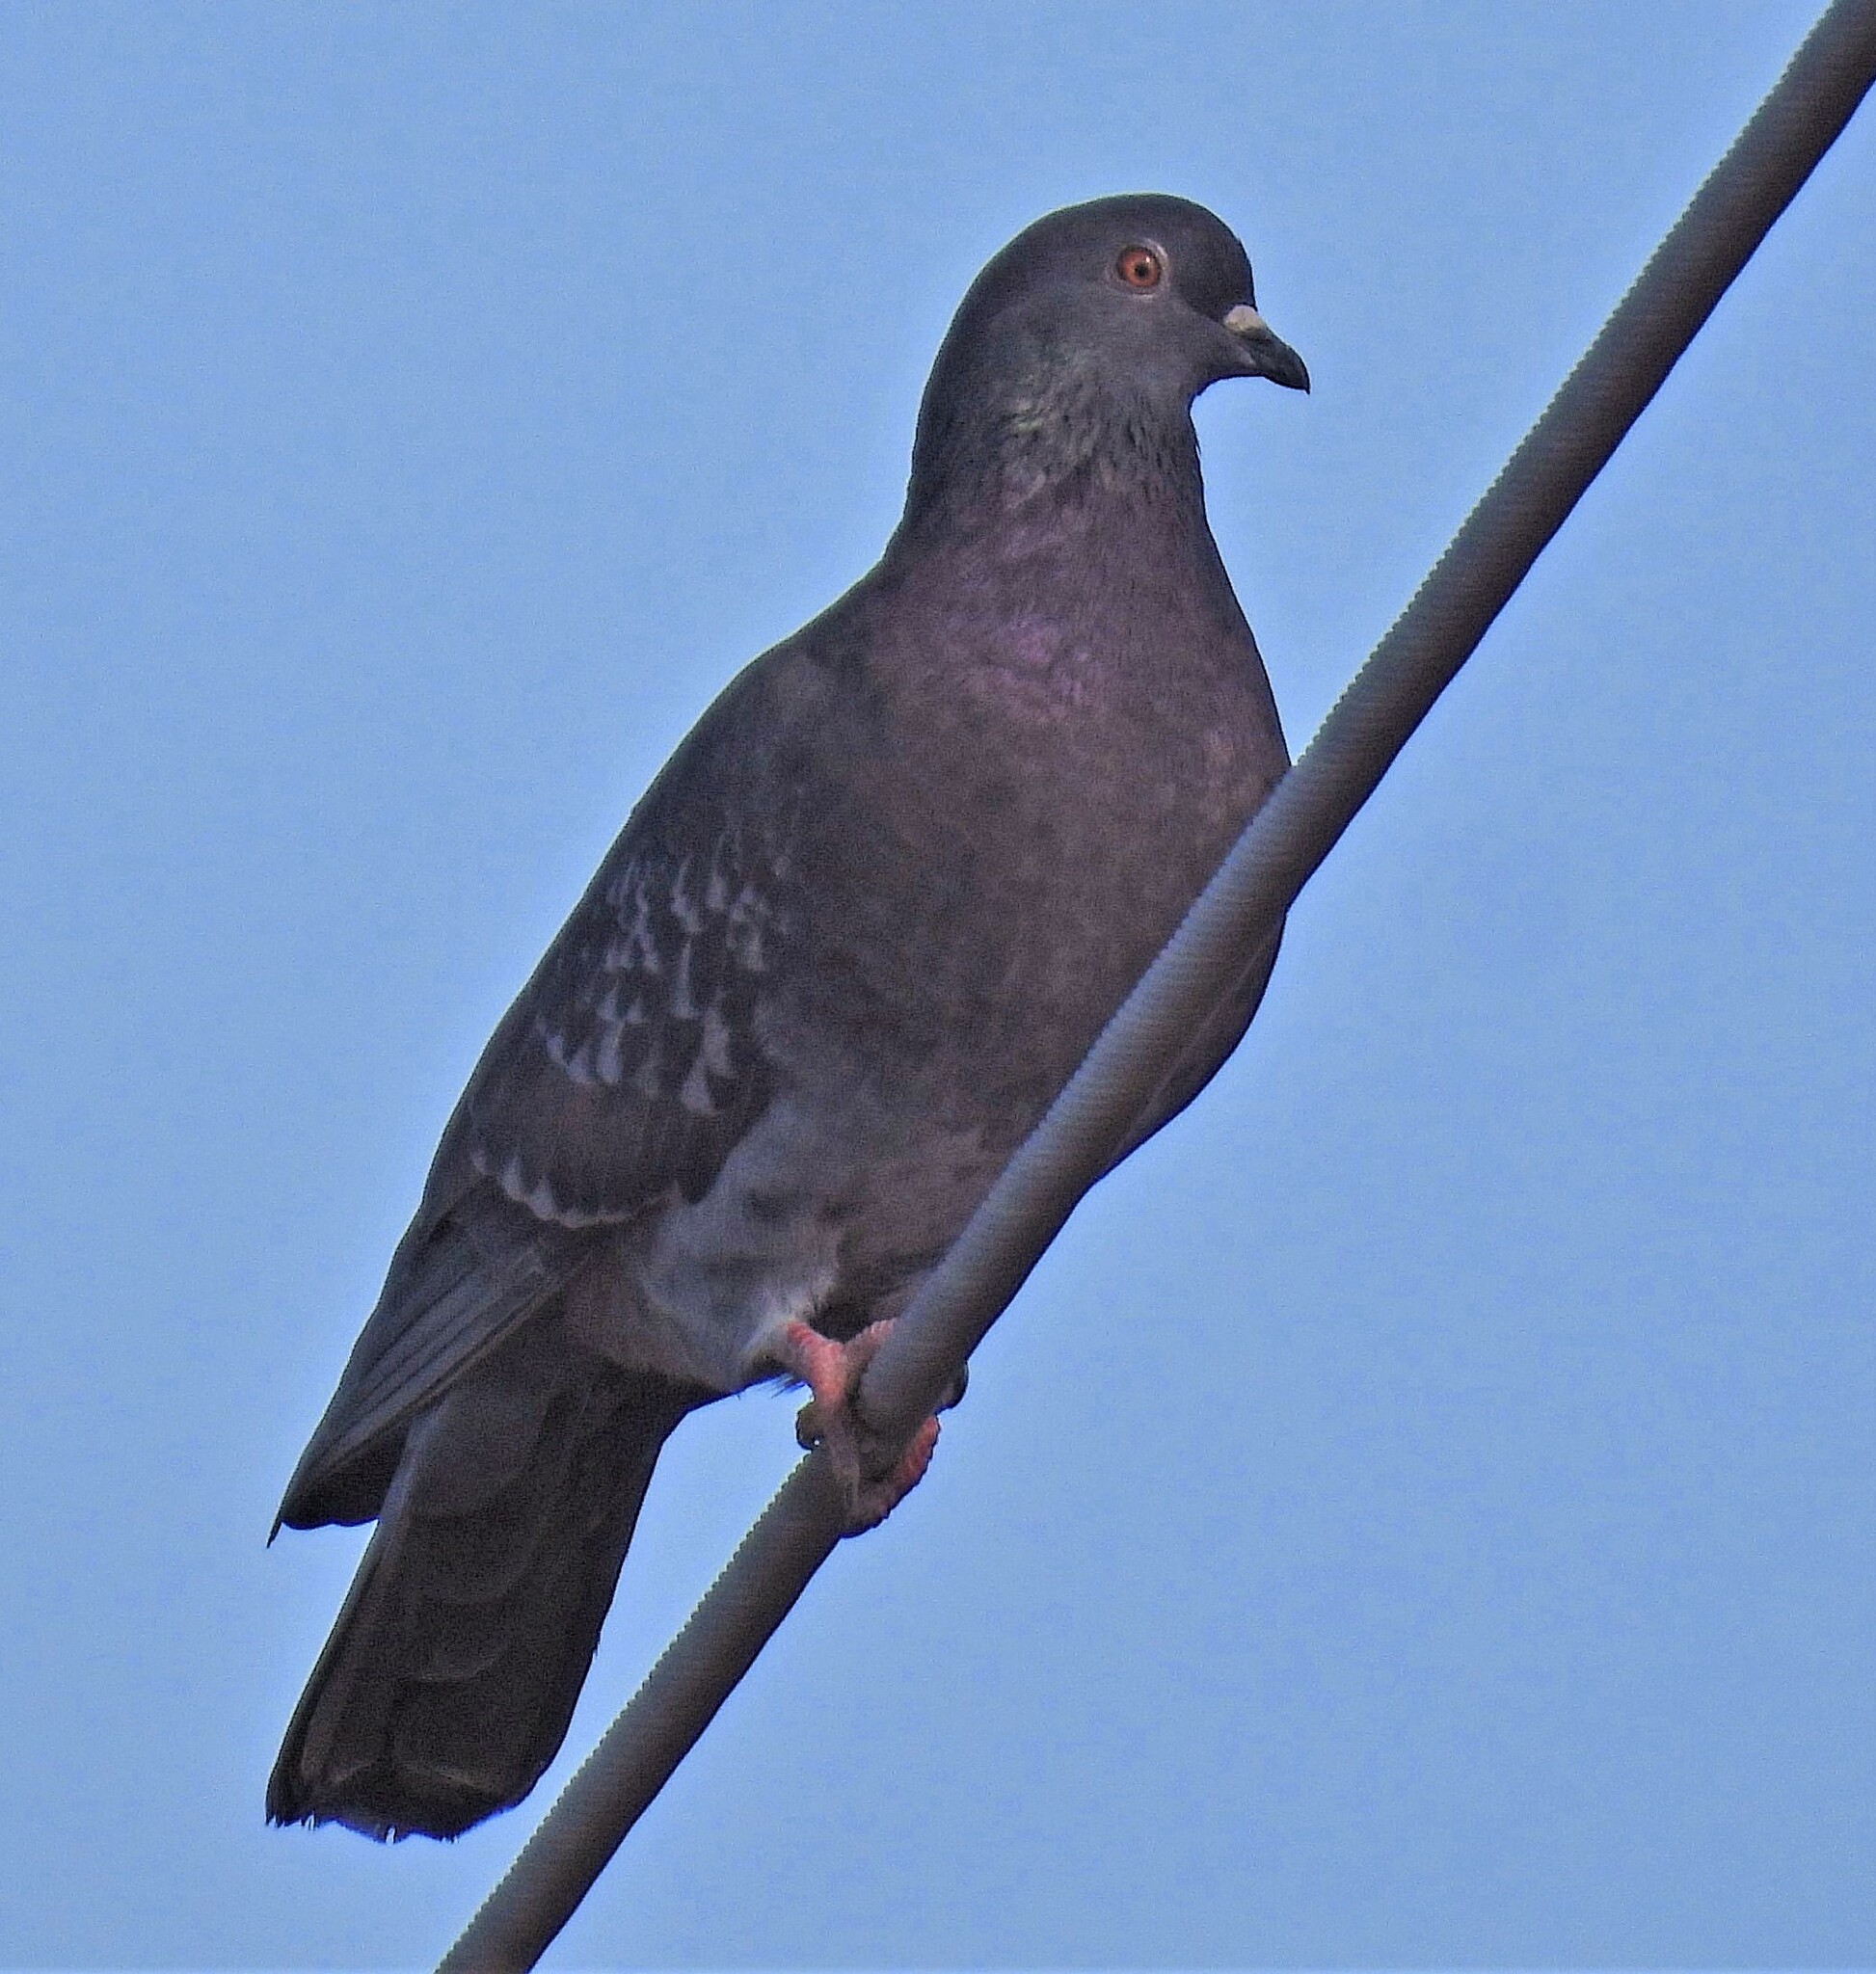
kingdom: Animalia
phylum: Chordata
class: Aves
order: Columbiformes
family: Columbidae
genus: Columba
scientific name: Columba livia
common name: Rock pigeon
